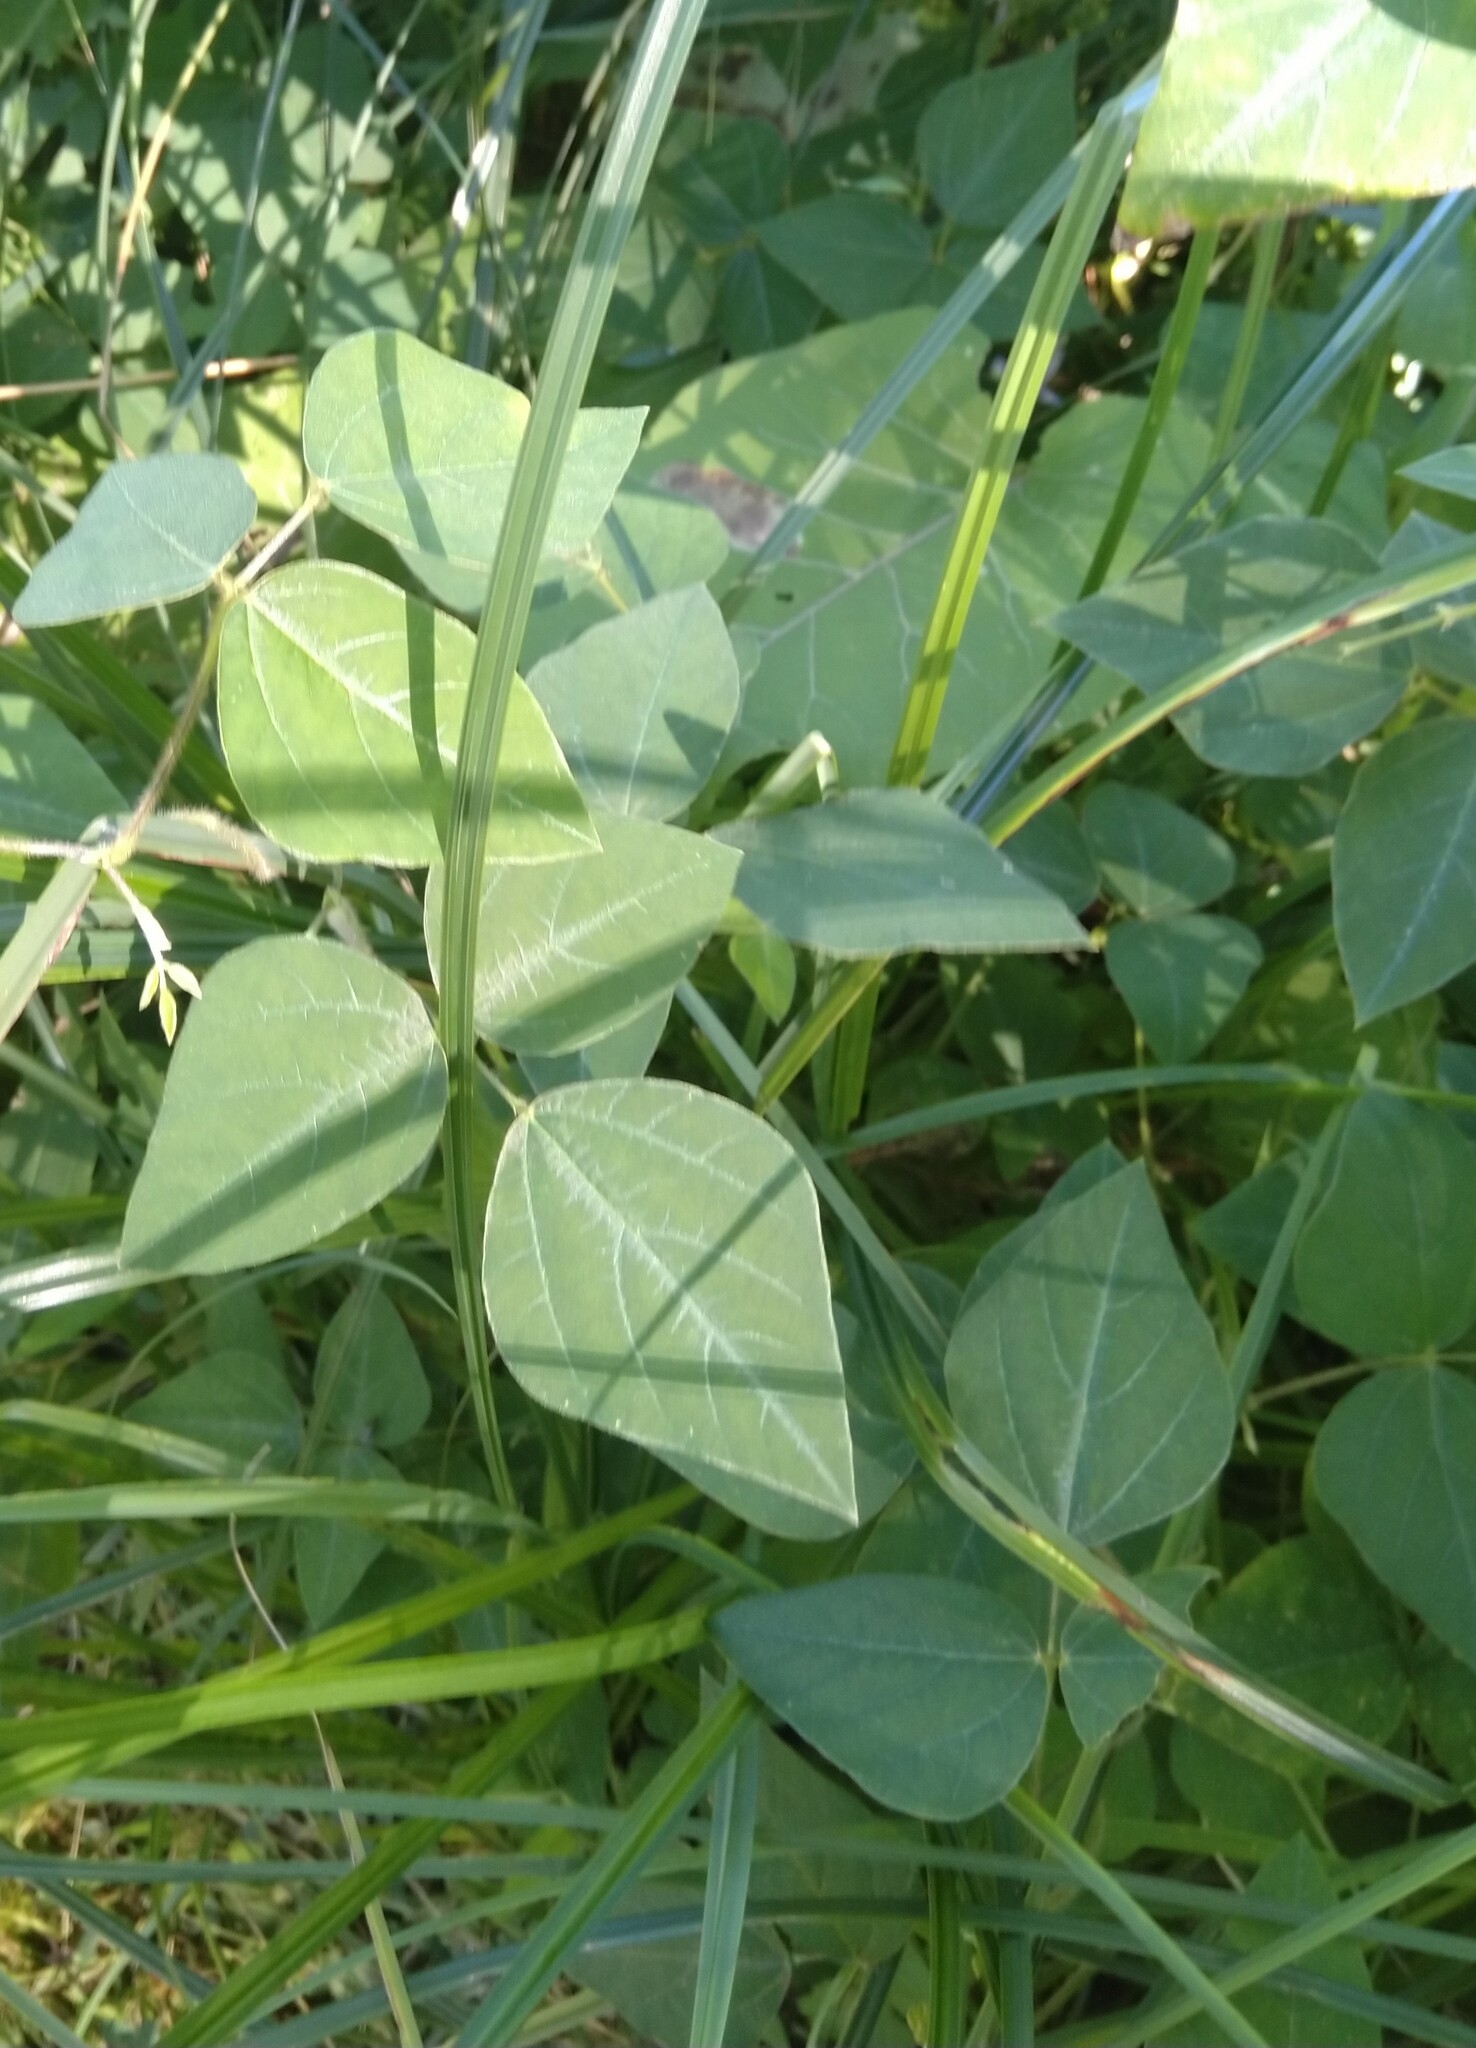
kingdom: Plantae
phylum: Tracheophyta
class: Magnoliopsida
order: Fabales
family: Fabaceae
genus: Amphicarpaea
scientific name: Amphicarpaea bracteata
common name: American hog peanut
